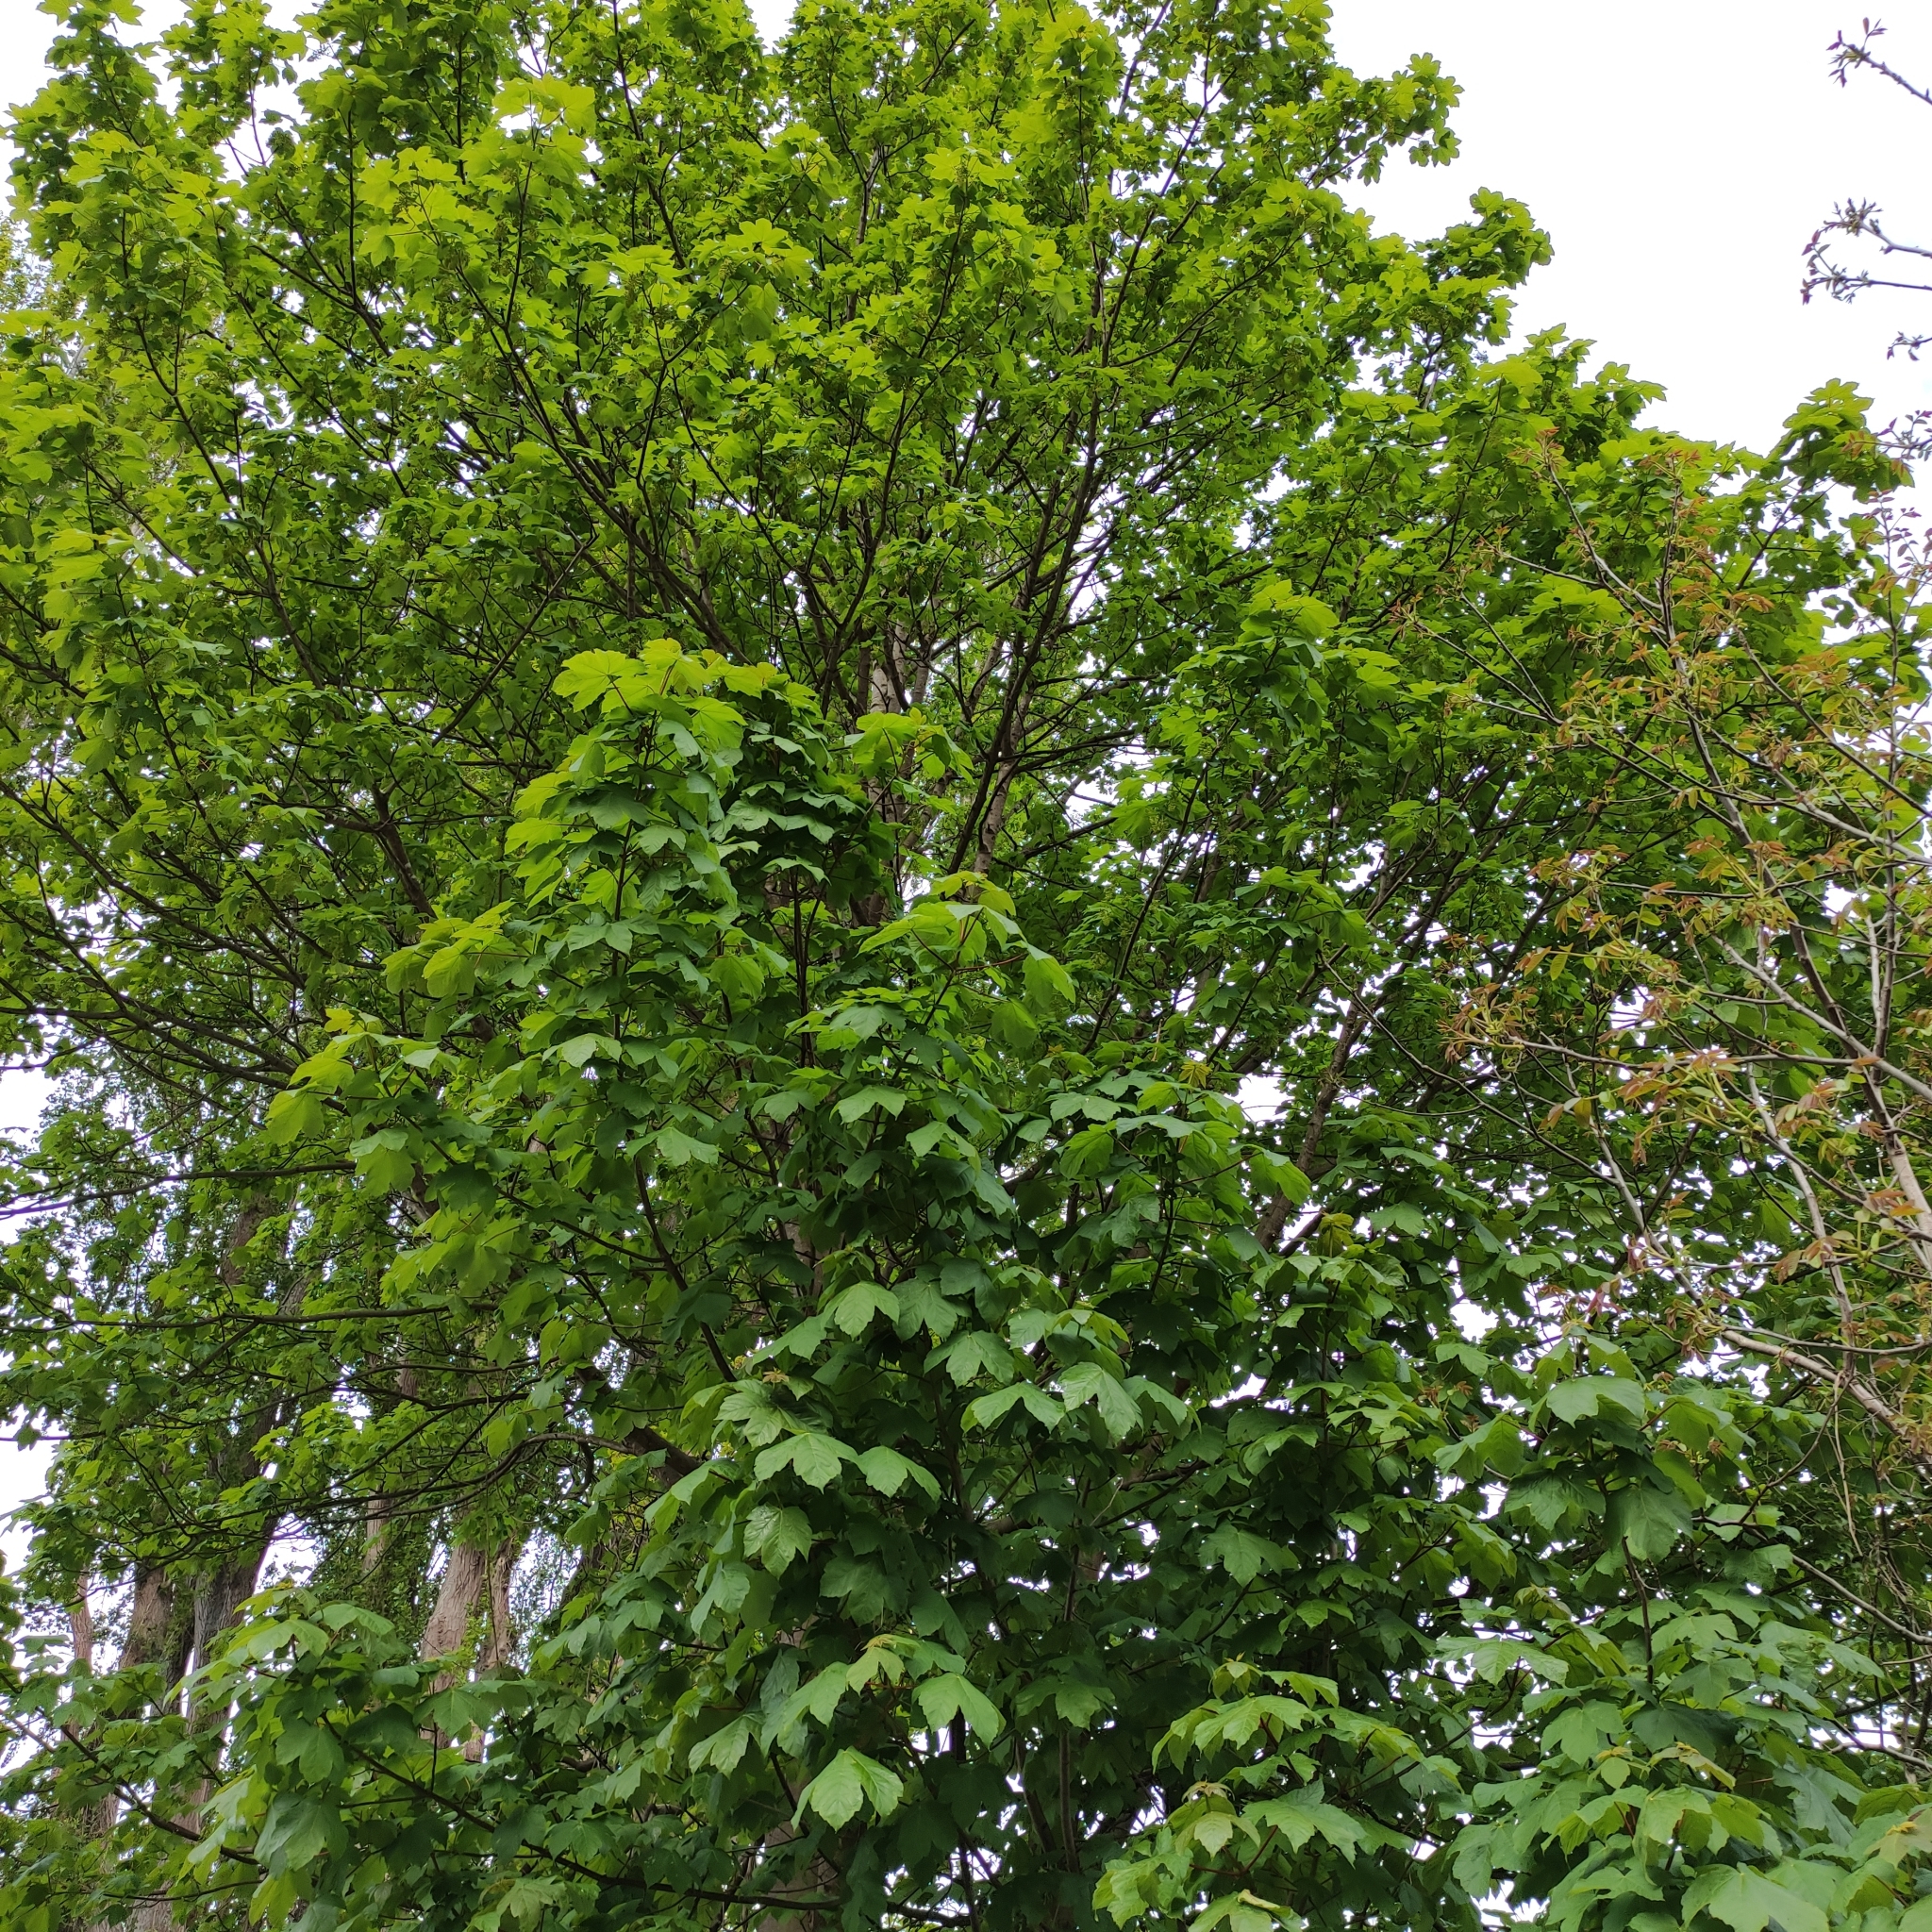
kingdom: Plantae
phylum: Tracheophyta
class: Magnoliopsida
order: Sapindales
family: Sapindaceae
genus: Acer
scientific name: Acer pseudoplatanus
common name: Sycamore
